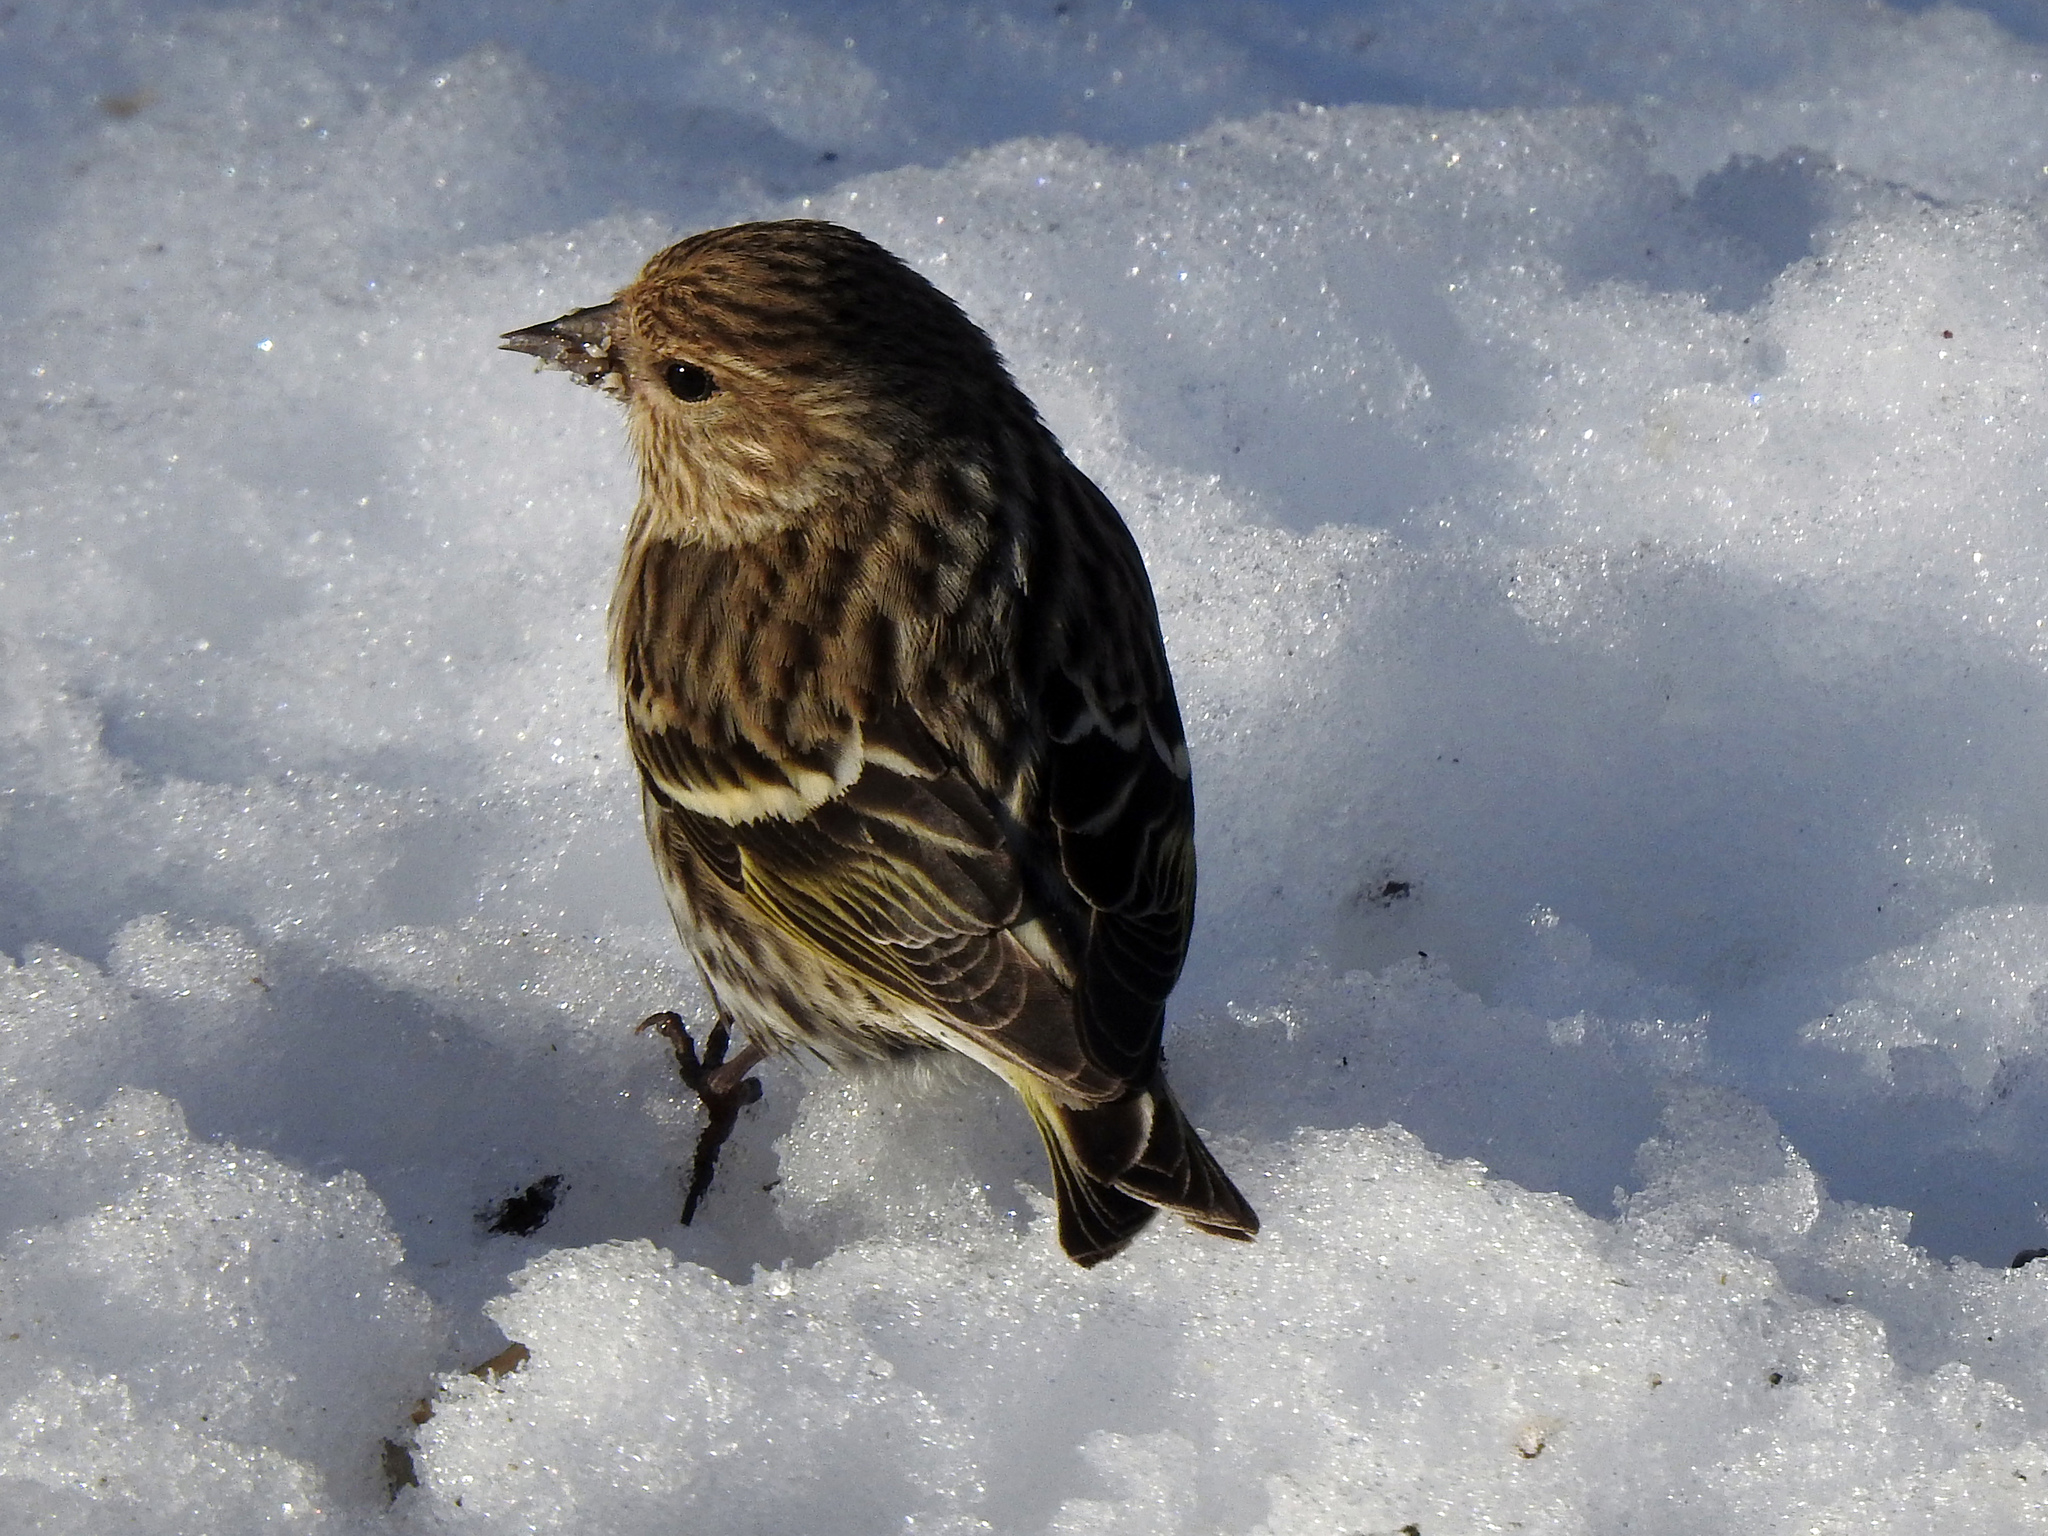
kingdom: Animalia
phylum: Chordata
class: Aves
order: Passeriformes
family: Fringillidae
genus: Spinus
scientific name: Spinus pinus
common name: Pine siskin
